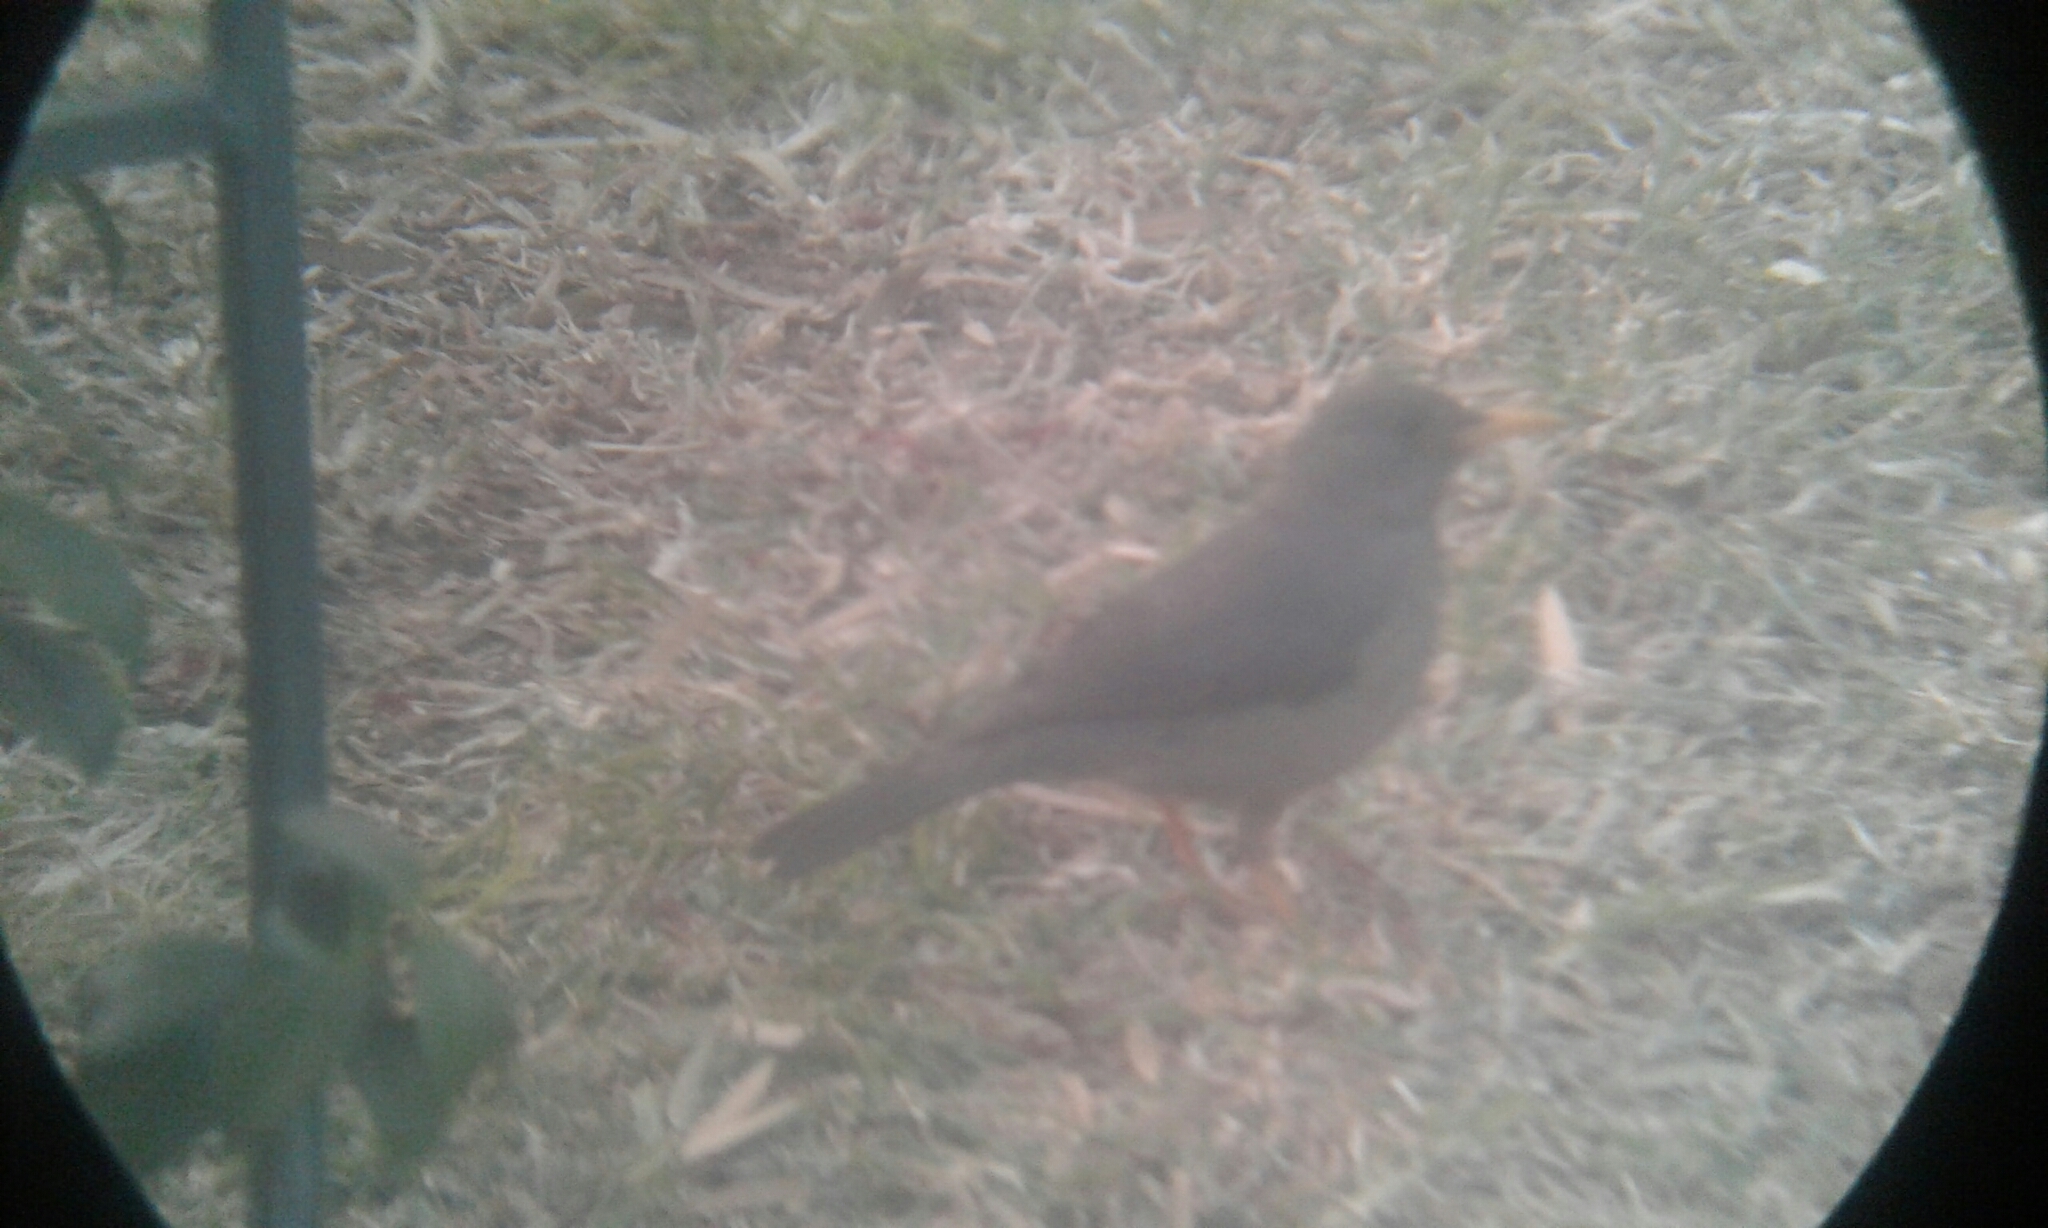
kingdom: Animalia
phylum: Chordata
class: Aves
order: Passeriformes
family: Turdidae
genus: Turdus
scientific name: Turdus smithi
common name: Karoo thrush
